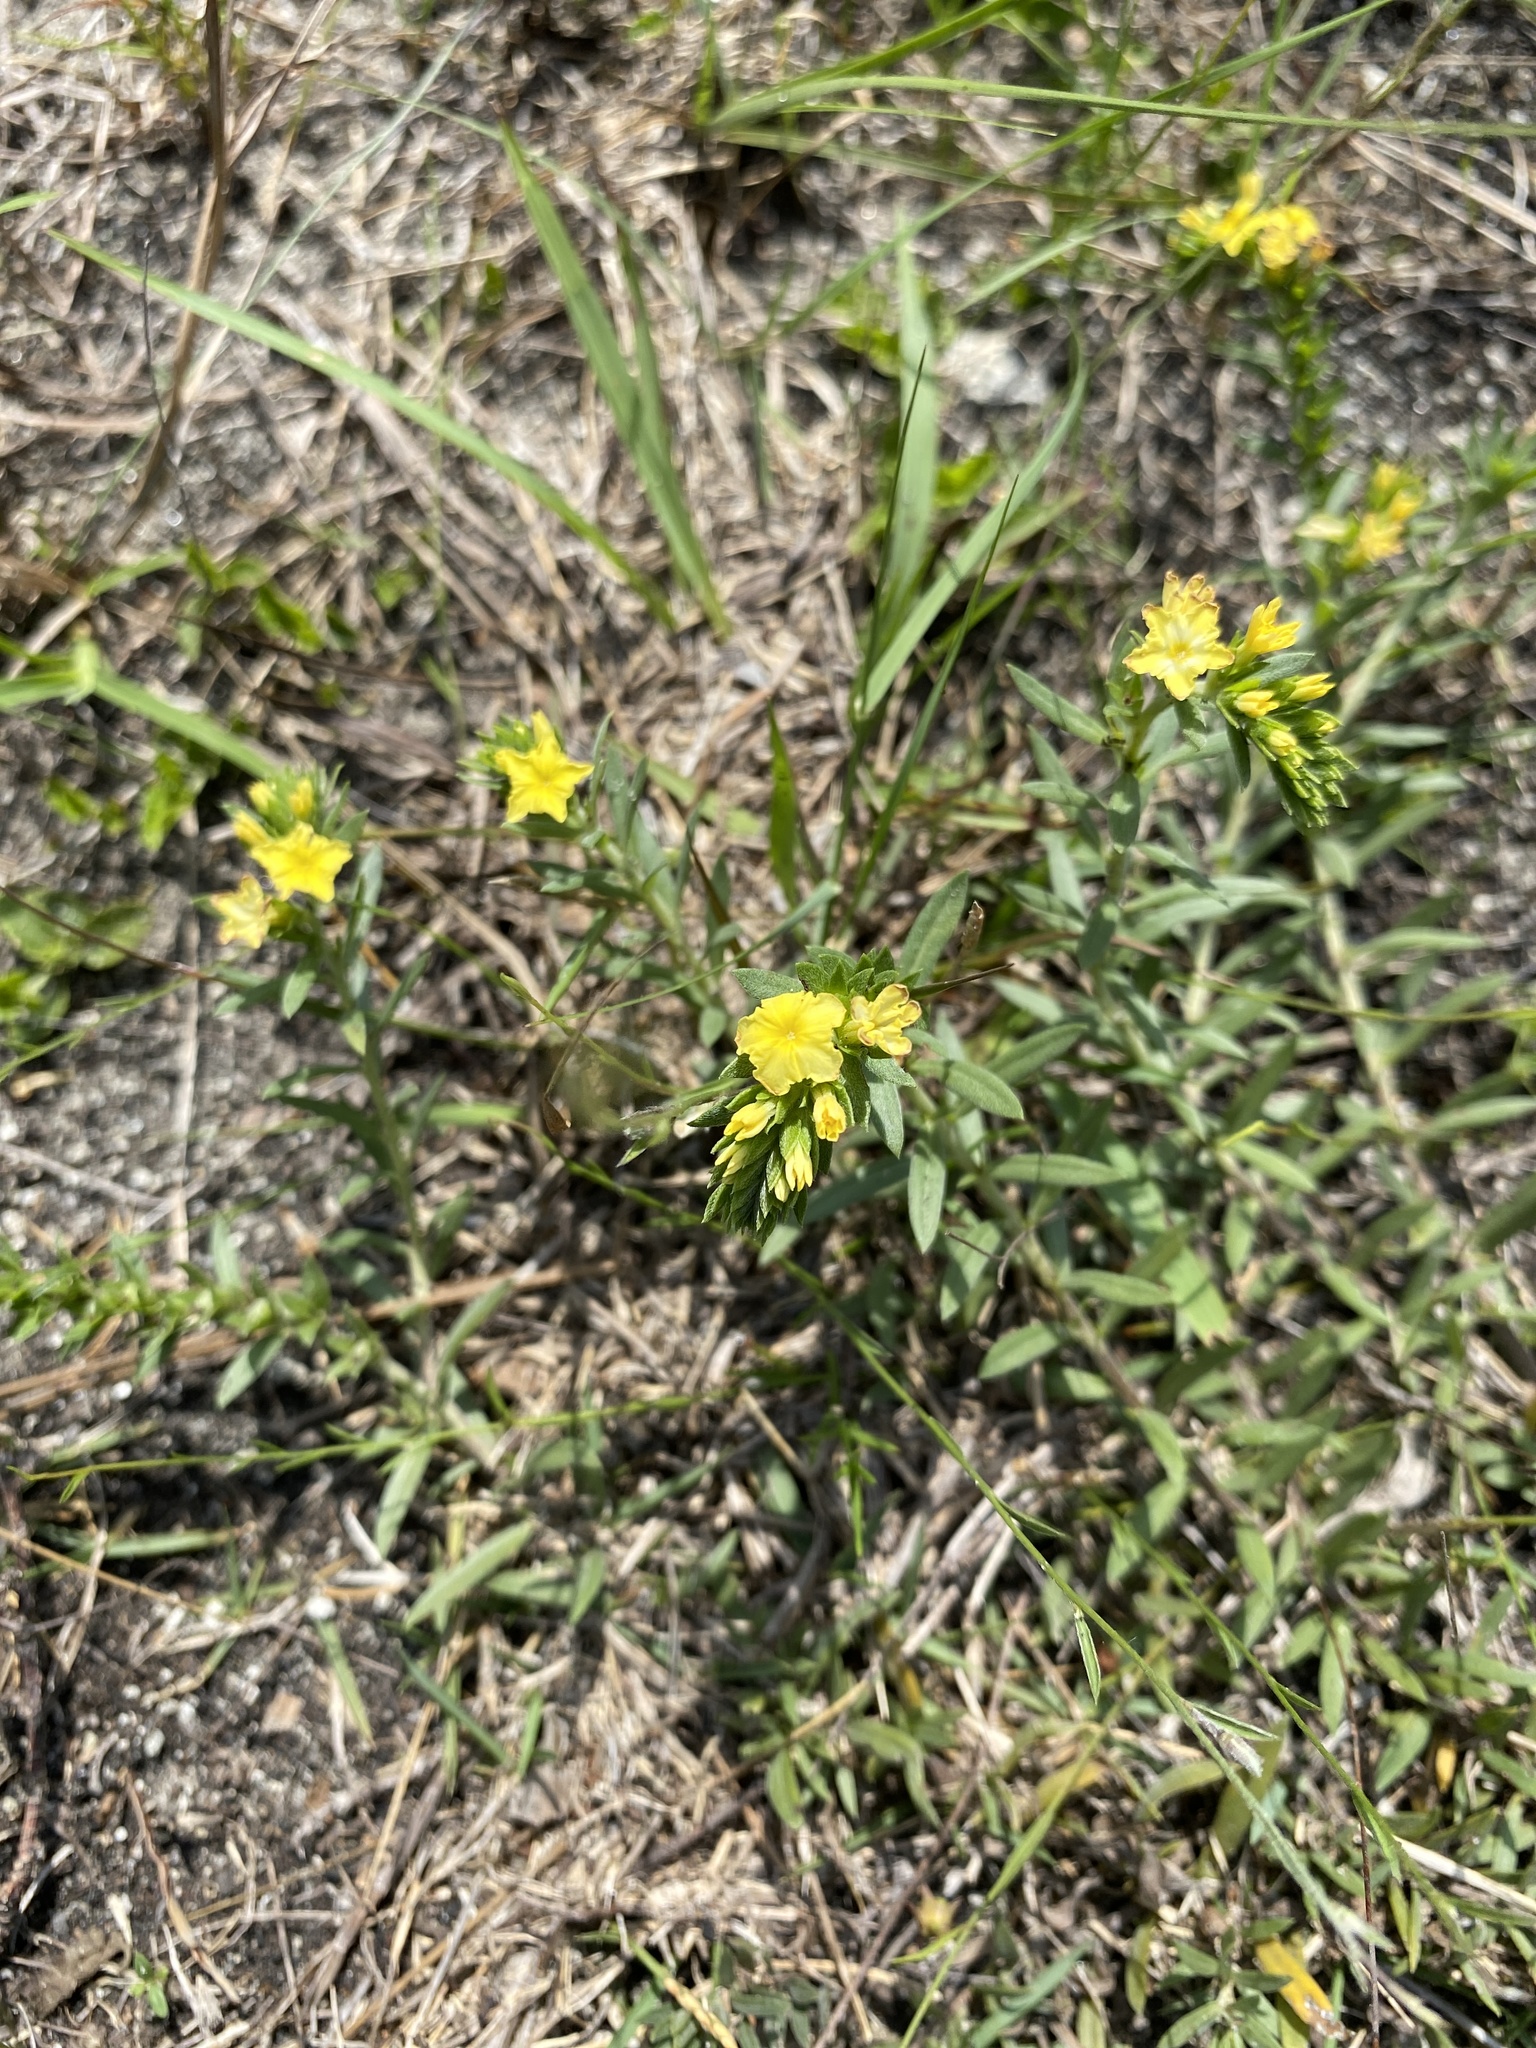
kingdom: Plantae
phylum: Tracheophyta
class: Magnoliopsida
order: Boraginales
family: Heliotropiaceae
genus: Euploca
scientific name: Euploca polyphylla
